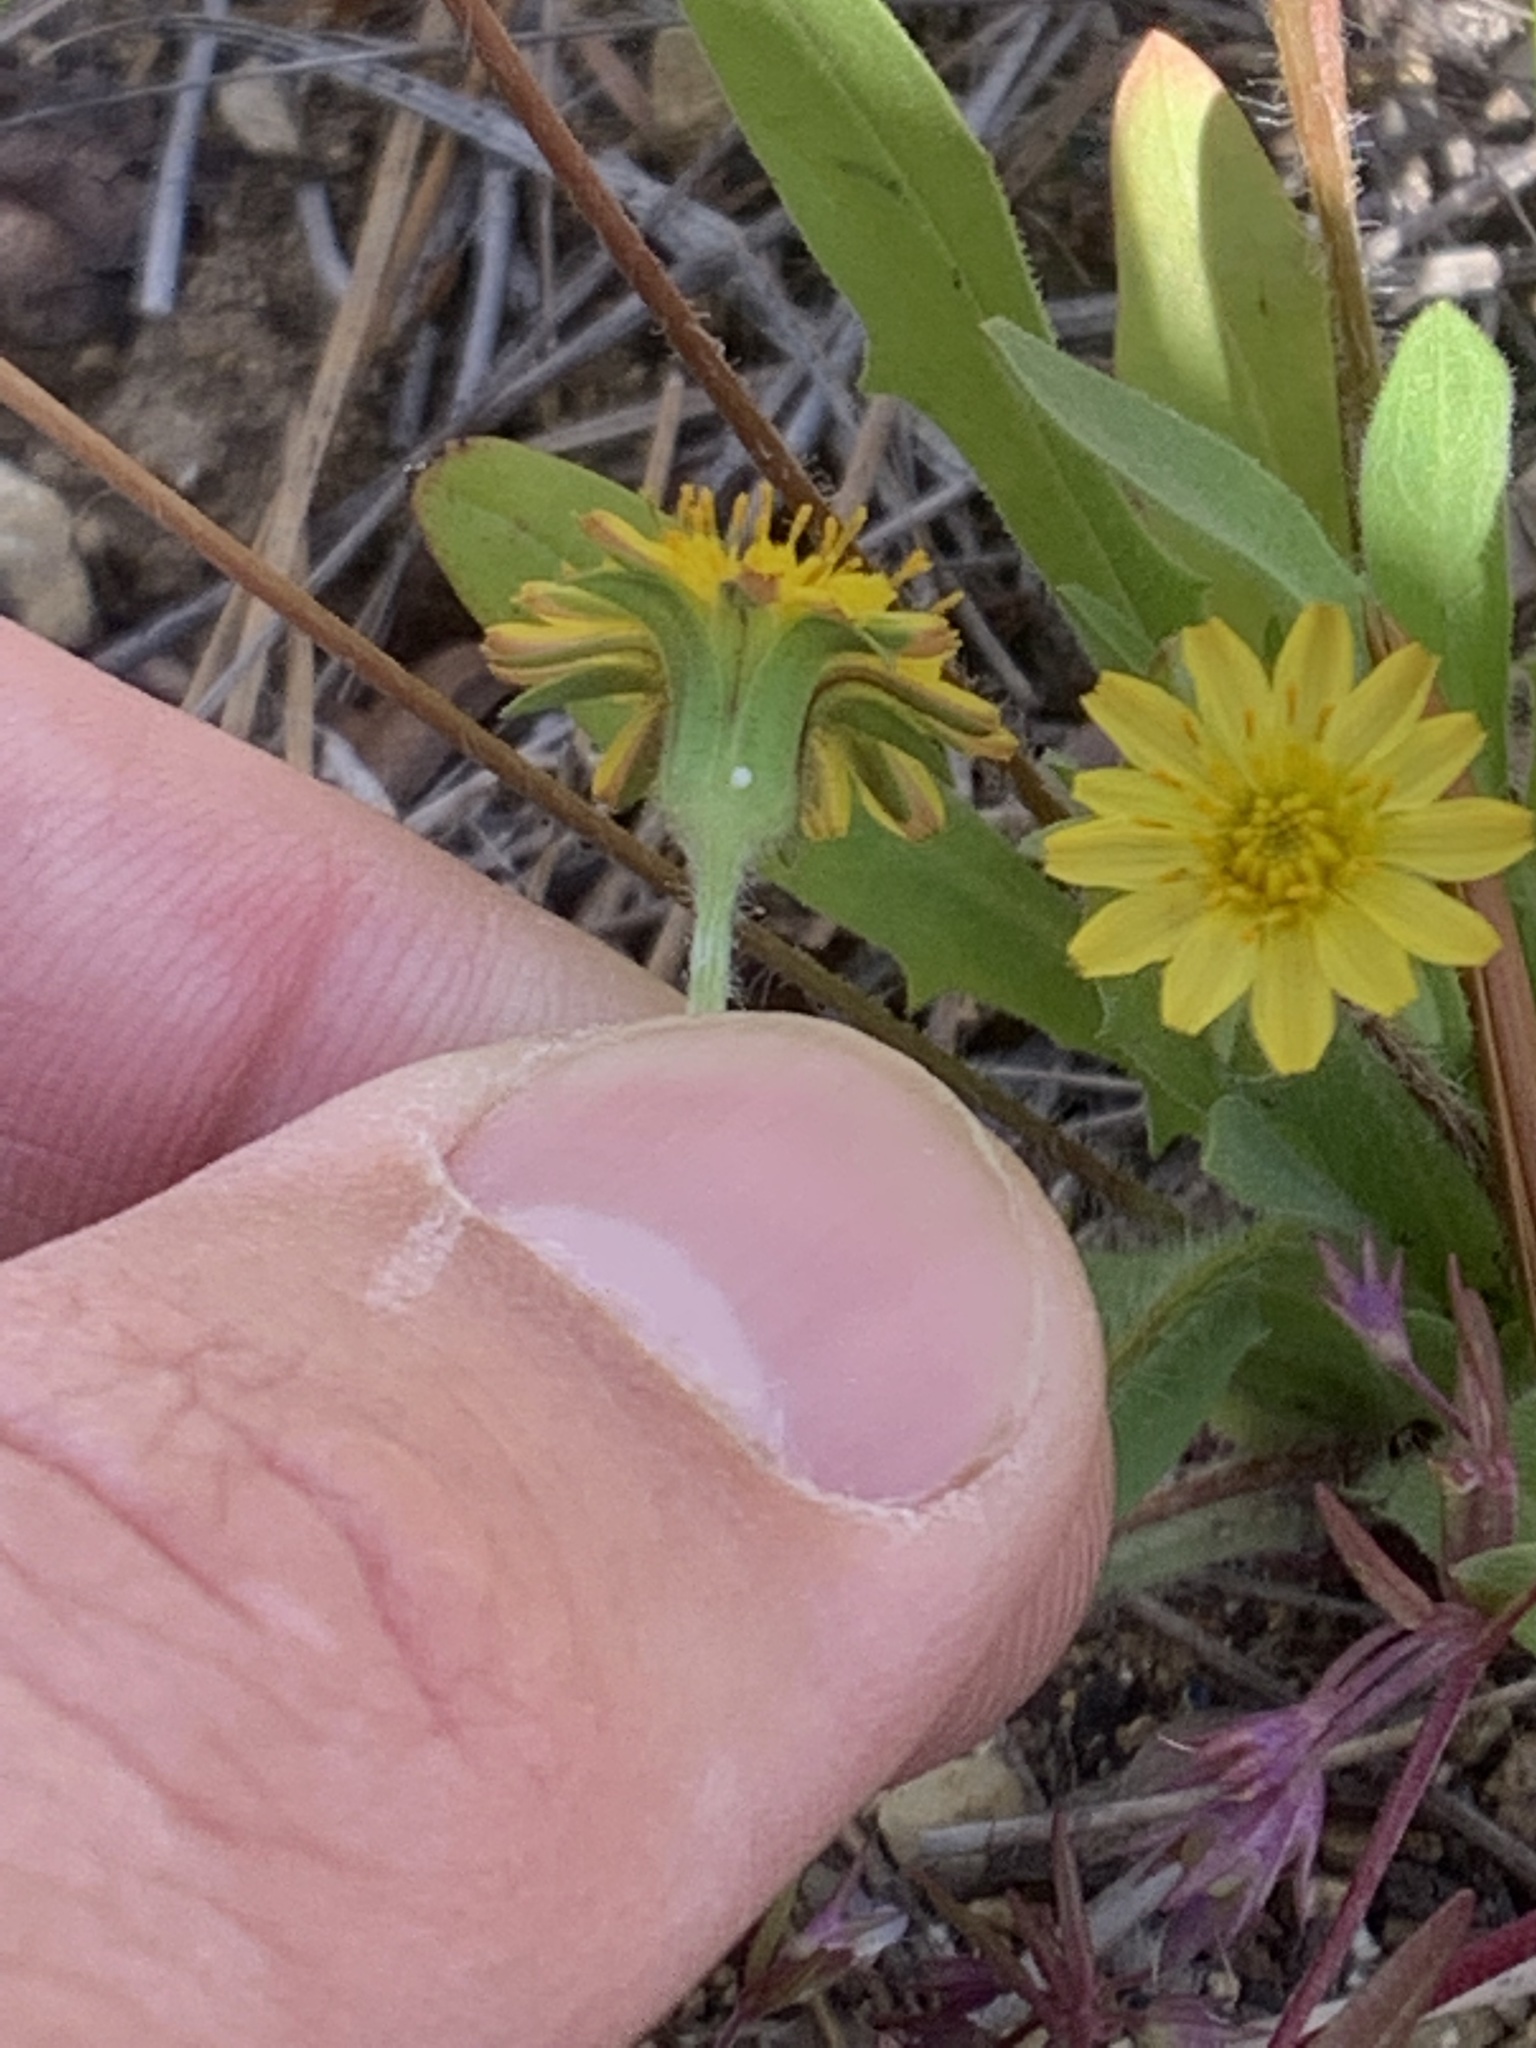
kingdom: Plantae
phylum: Tracheophyta
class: Magnoliopsida
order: Asterales
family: Asteraceae
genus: Agoseris
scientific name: Agoseris heterophylla
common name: Annual agoseris
